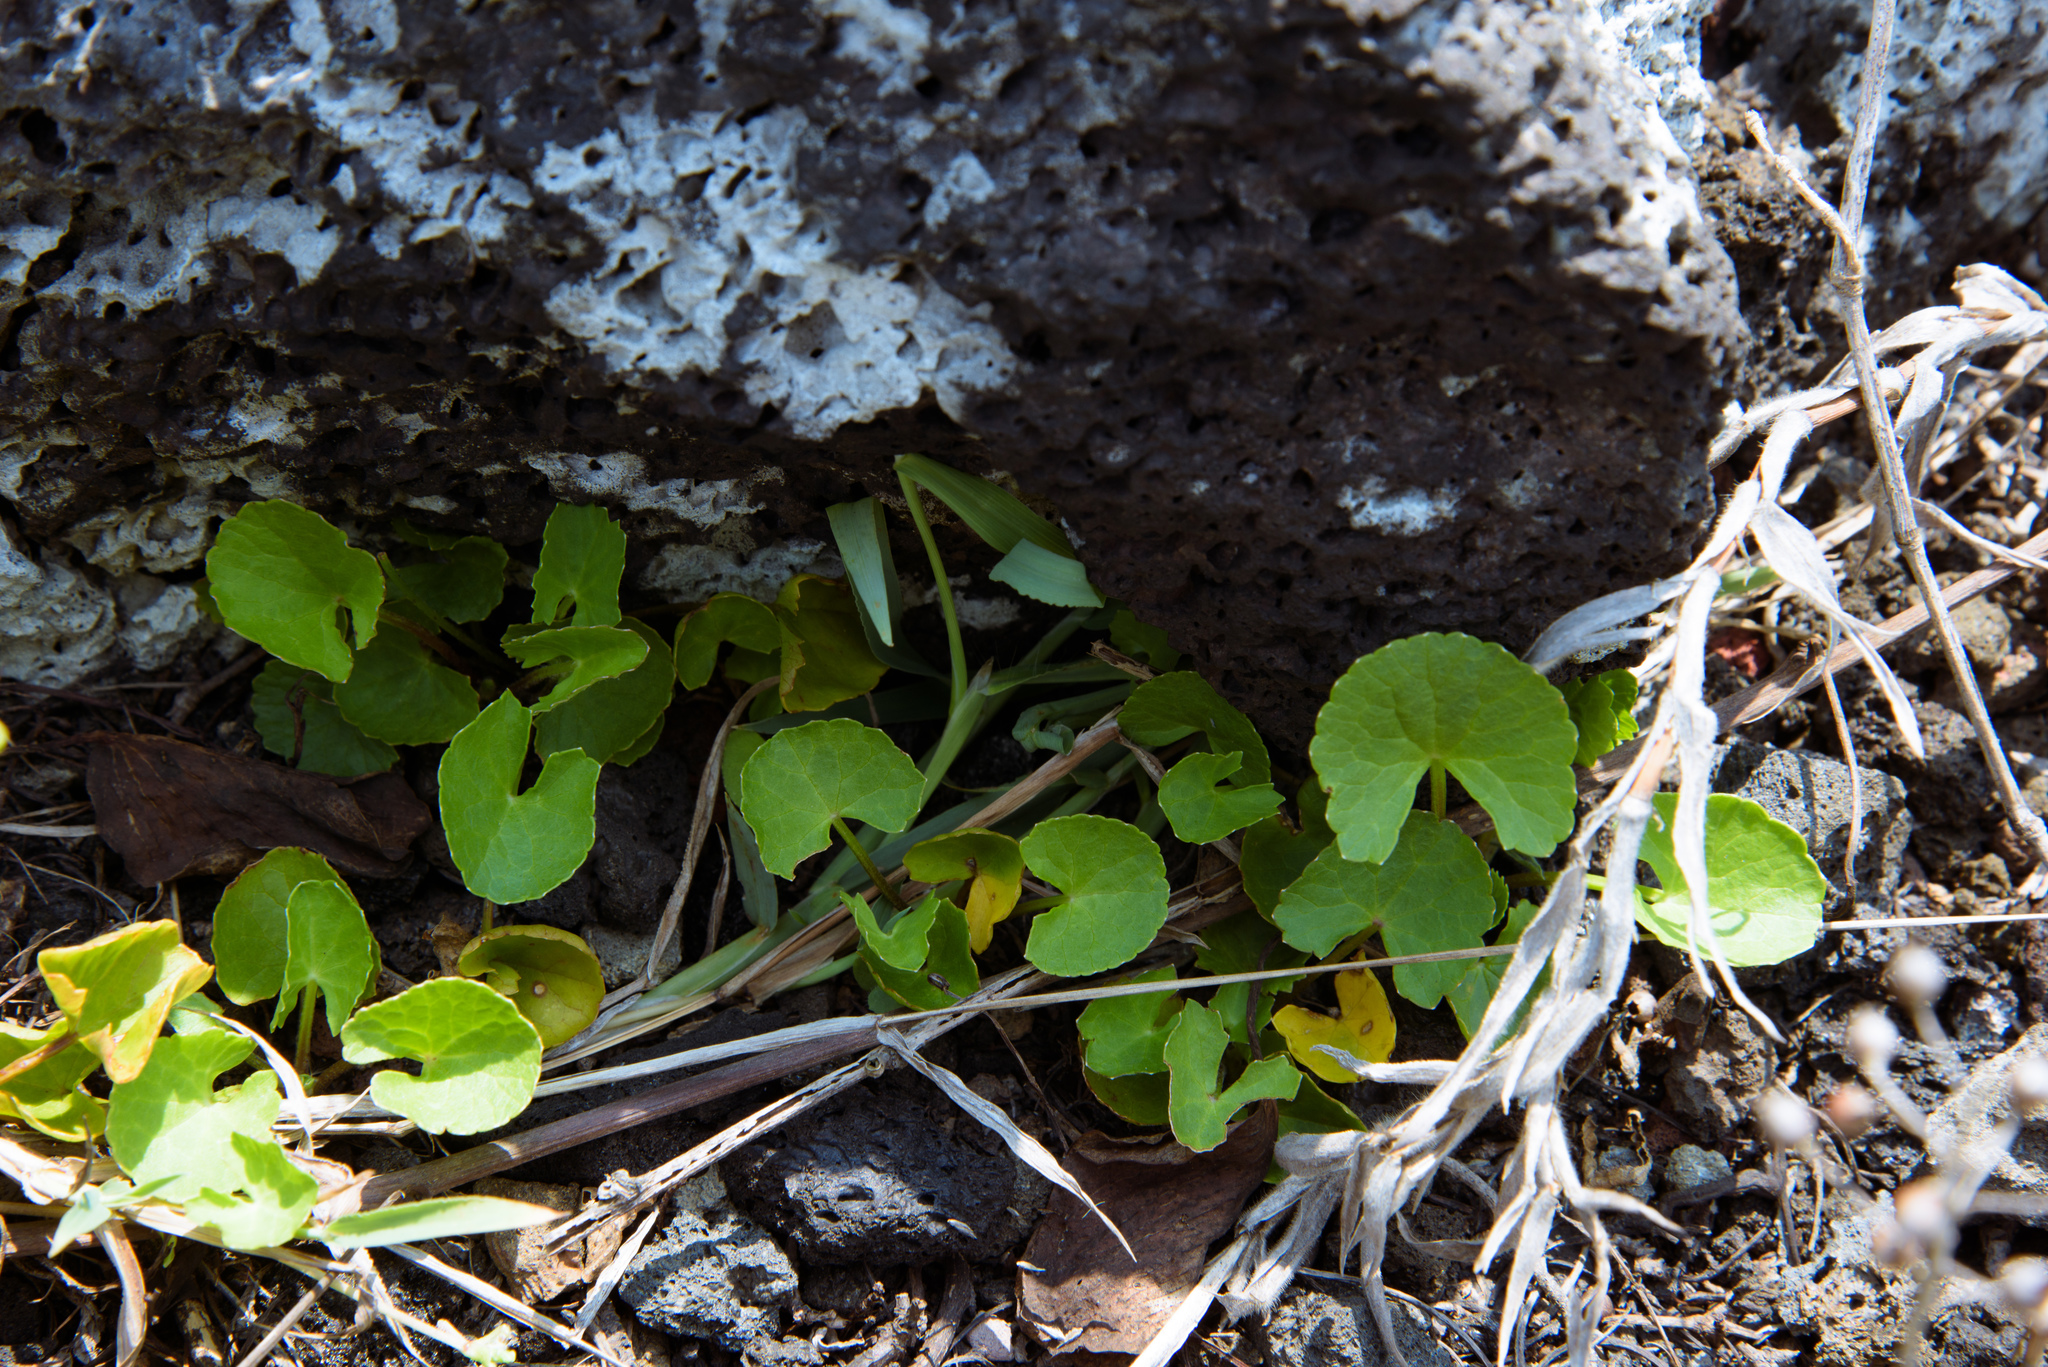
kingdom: Plantae
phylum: Tracheophyta
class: Magnoliopsida
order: Apiales
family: Apiaceae
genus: Centella
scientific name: Centella asiatica
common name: Spadeleaf
